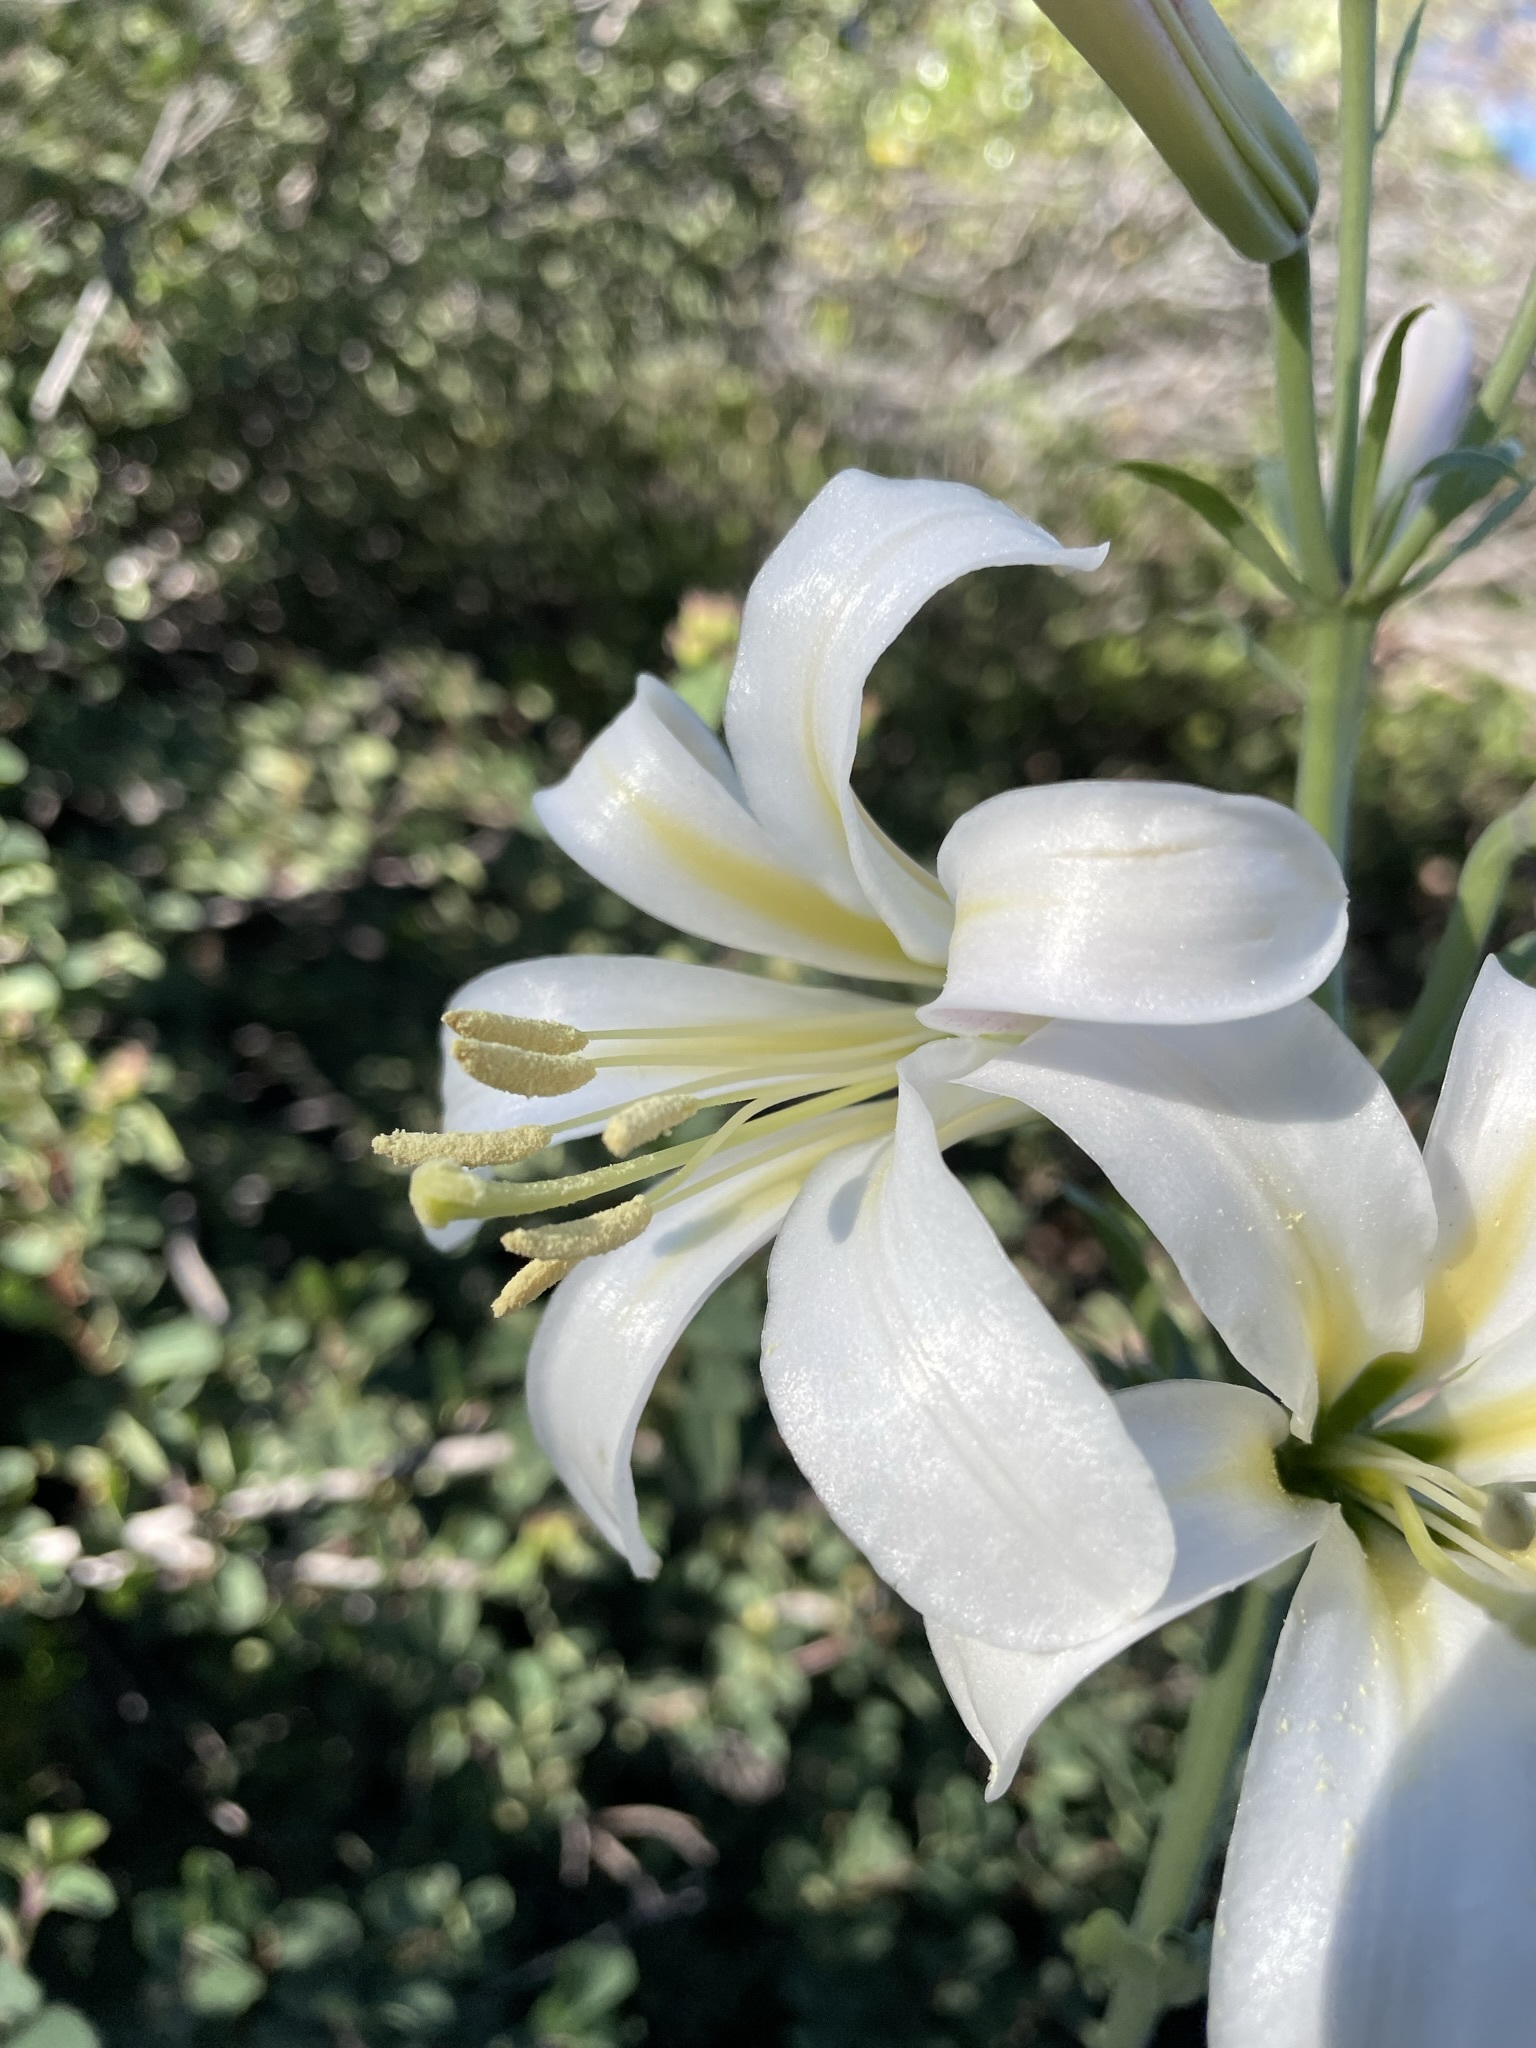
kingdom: Plantae
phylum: Tracheophyta
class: Liliopsida
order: Liliales
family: Liliaceae
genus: Lilium
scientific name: Lilium washingtonianum
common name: Washington lily
